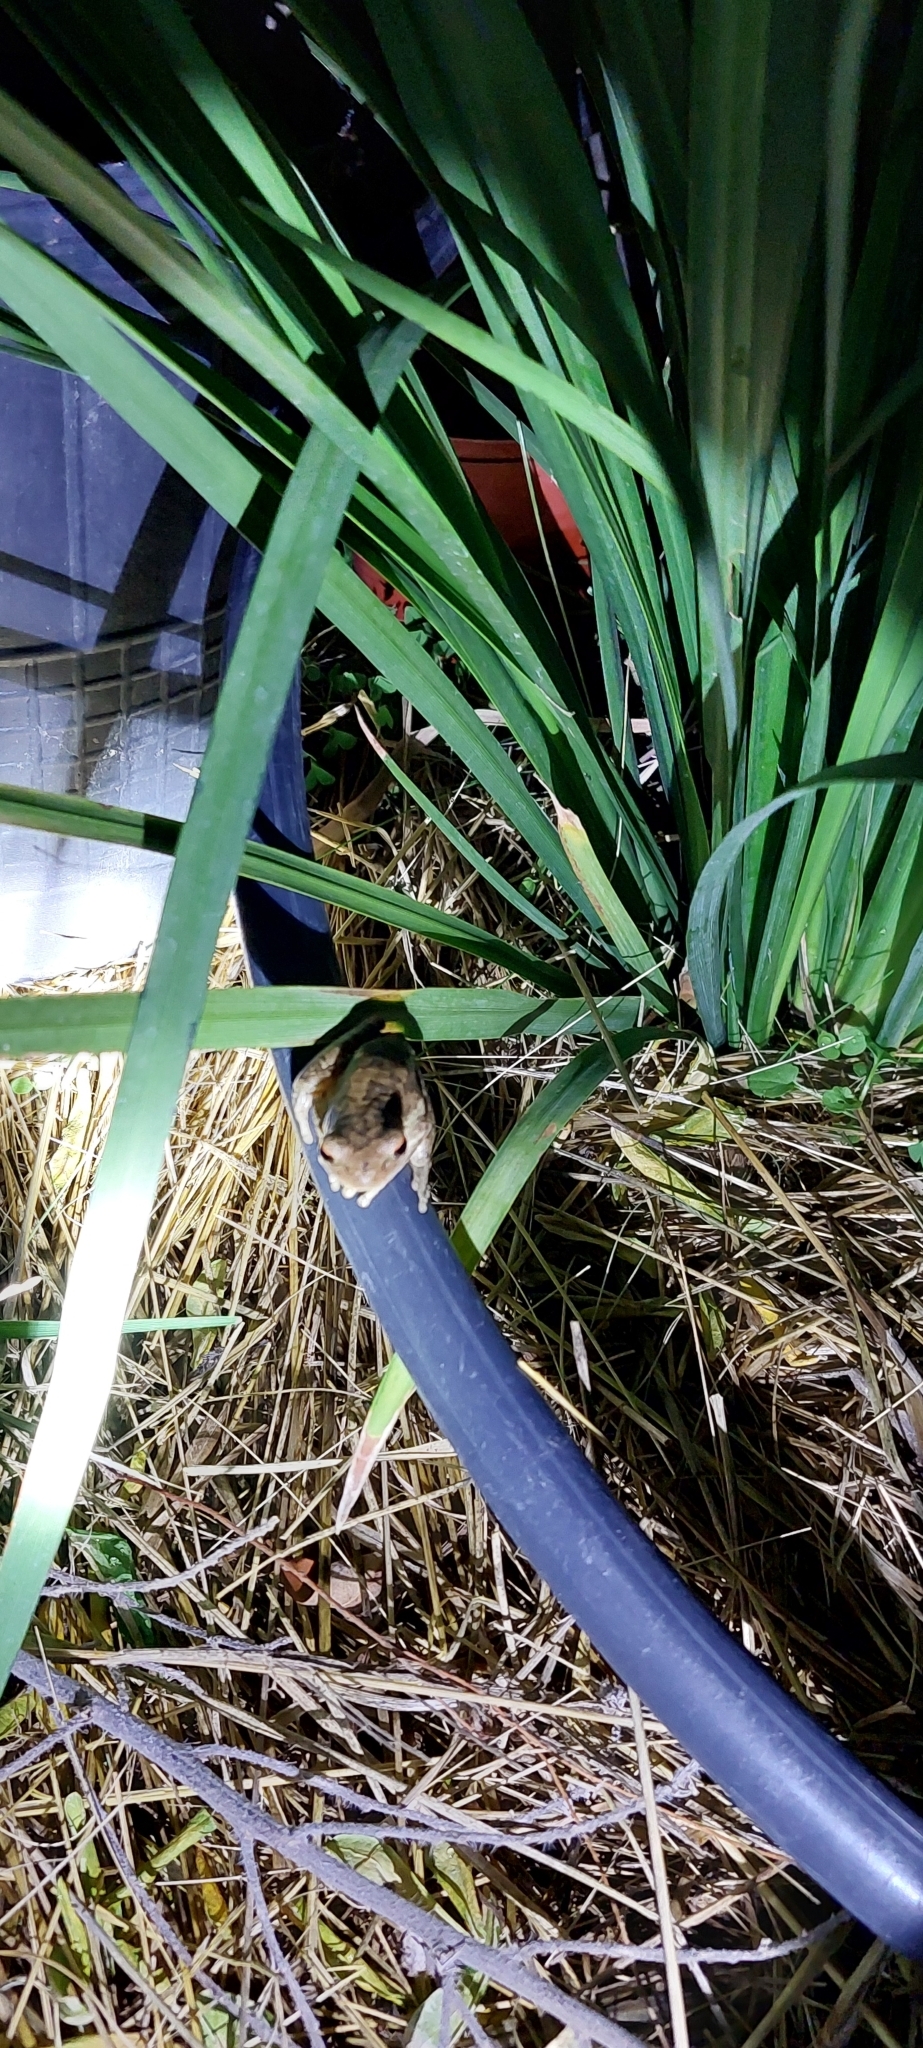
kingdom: Animalia
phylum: Chordata
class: Amphibia
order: Anura
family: Hylidae
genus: Boana
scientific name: Boana pulchella
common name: Montevideo treefrog
